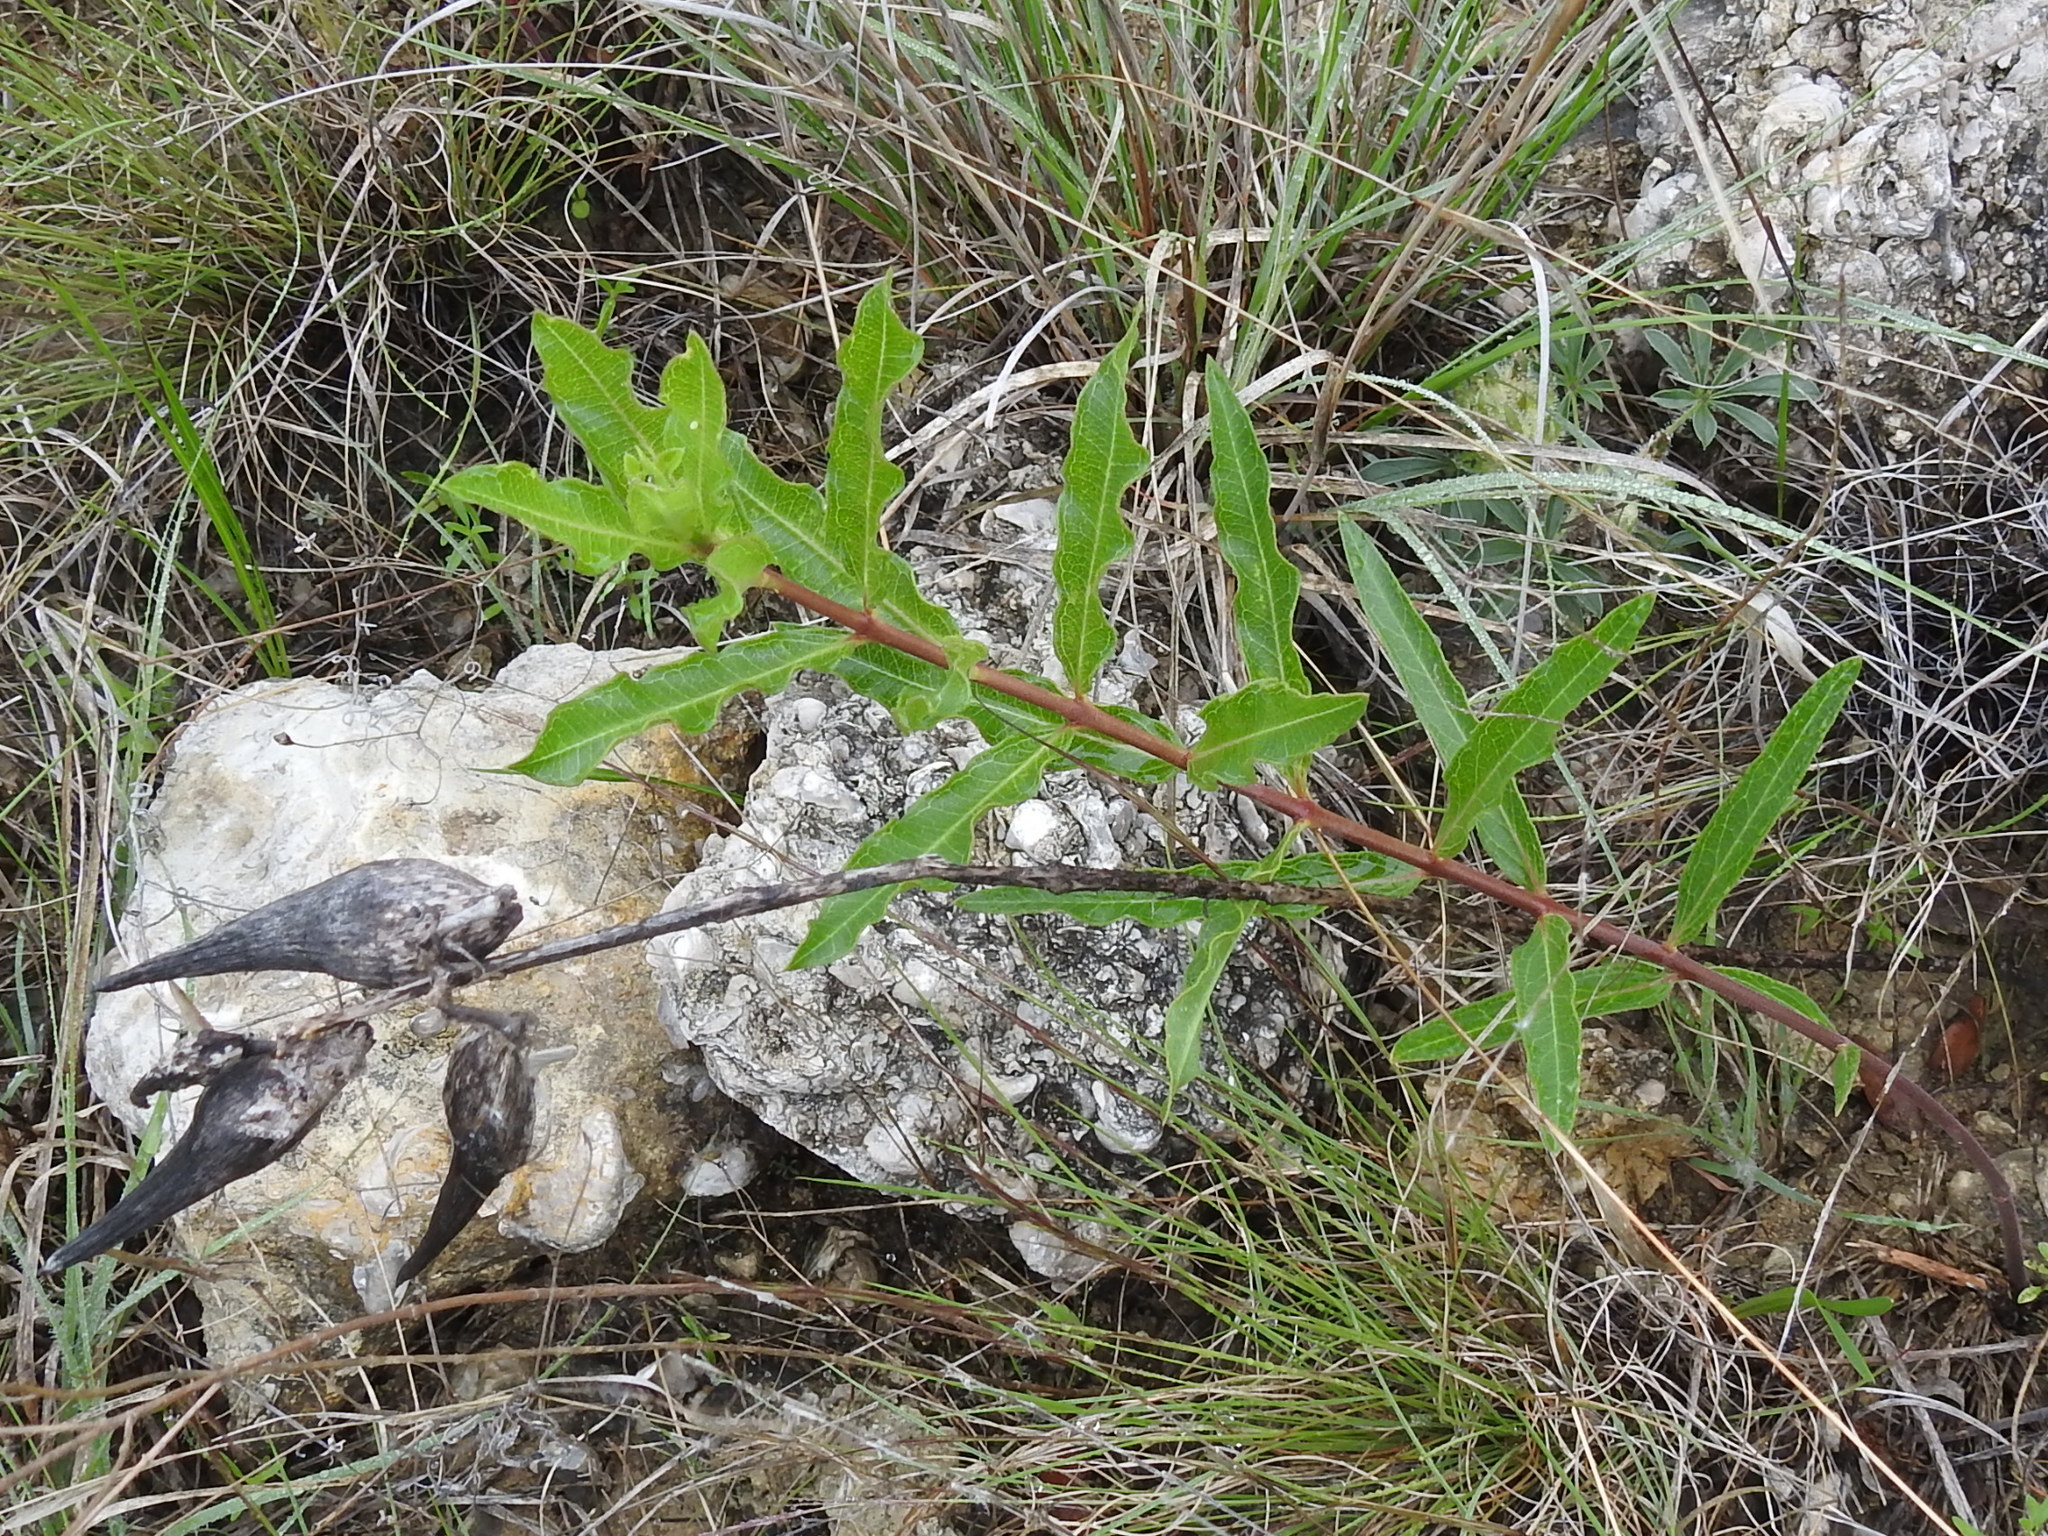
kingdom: Plantae
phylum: Tracheophyta
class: Magnoliopsida
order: Gentianales
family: Apocynaceae
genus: Asclepias
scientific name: Asclepias viridiflora
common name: Green comet milkweed
